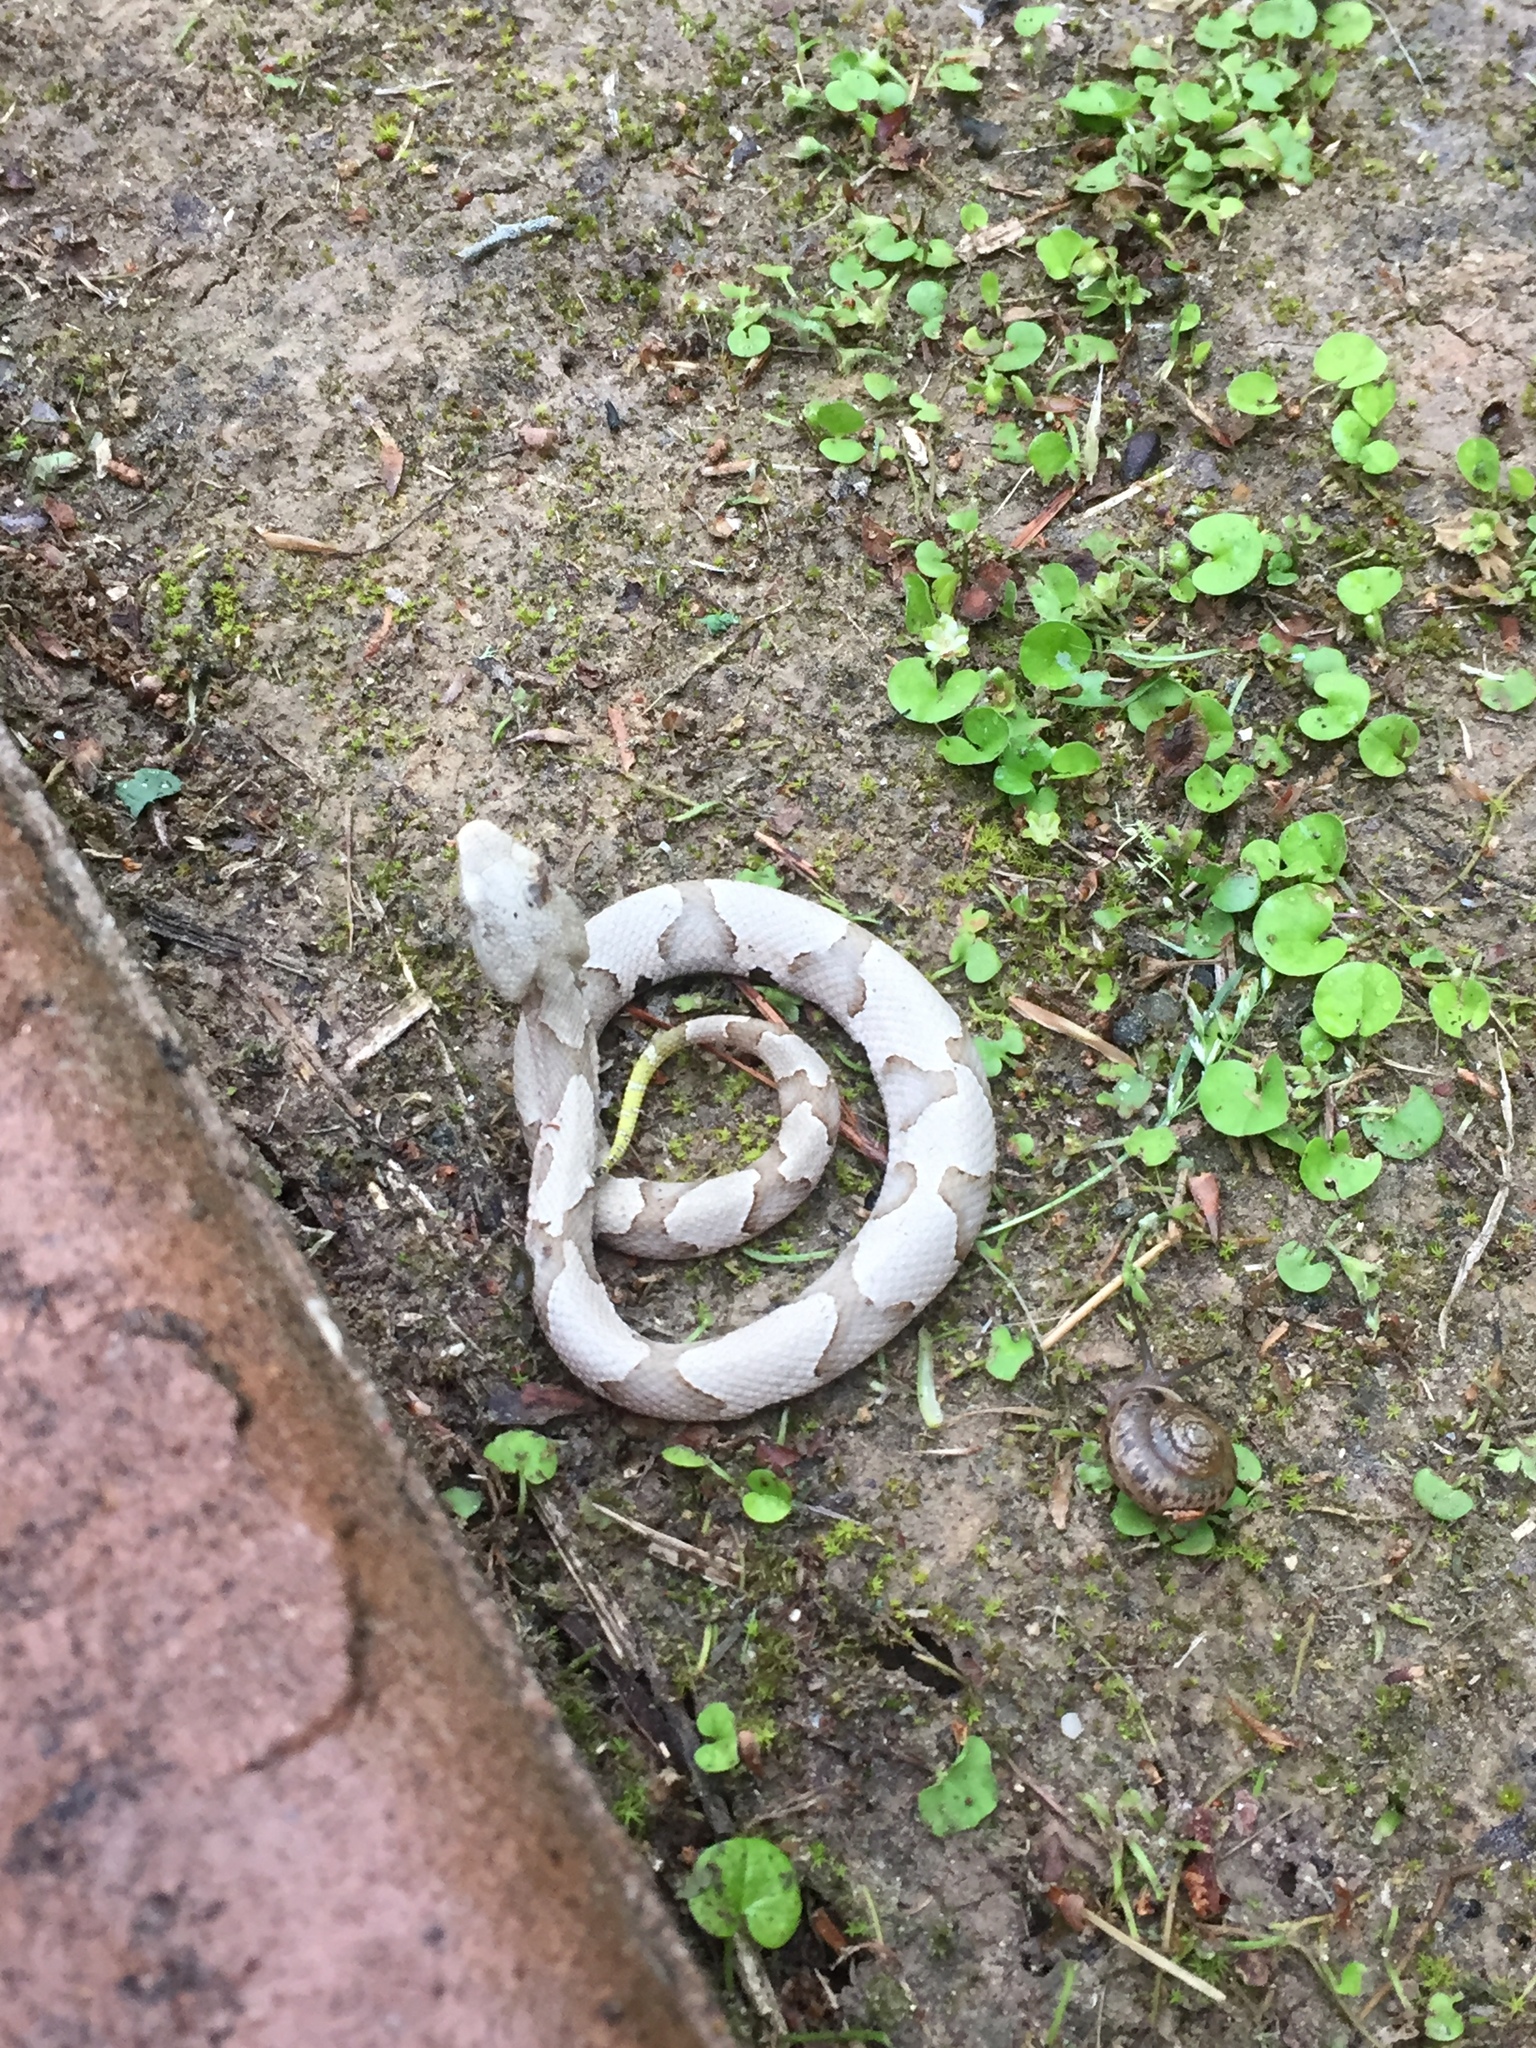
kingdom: Animalia
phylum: Chordata
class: Squamata
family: Viperidae
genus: Agkistrodon
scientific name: Agkistrodon contortrix
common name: Northern copperhead
